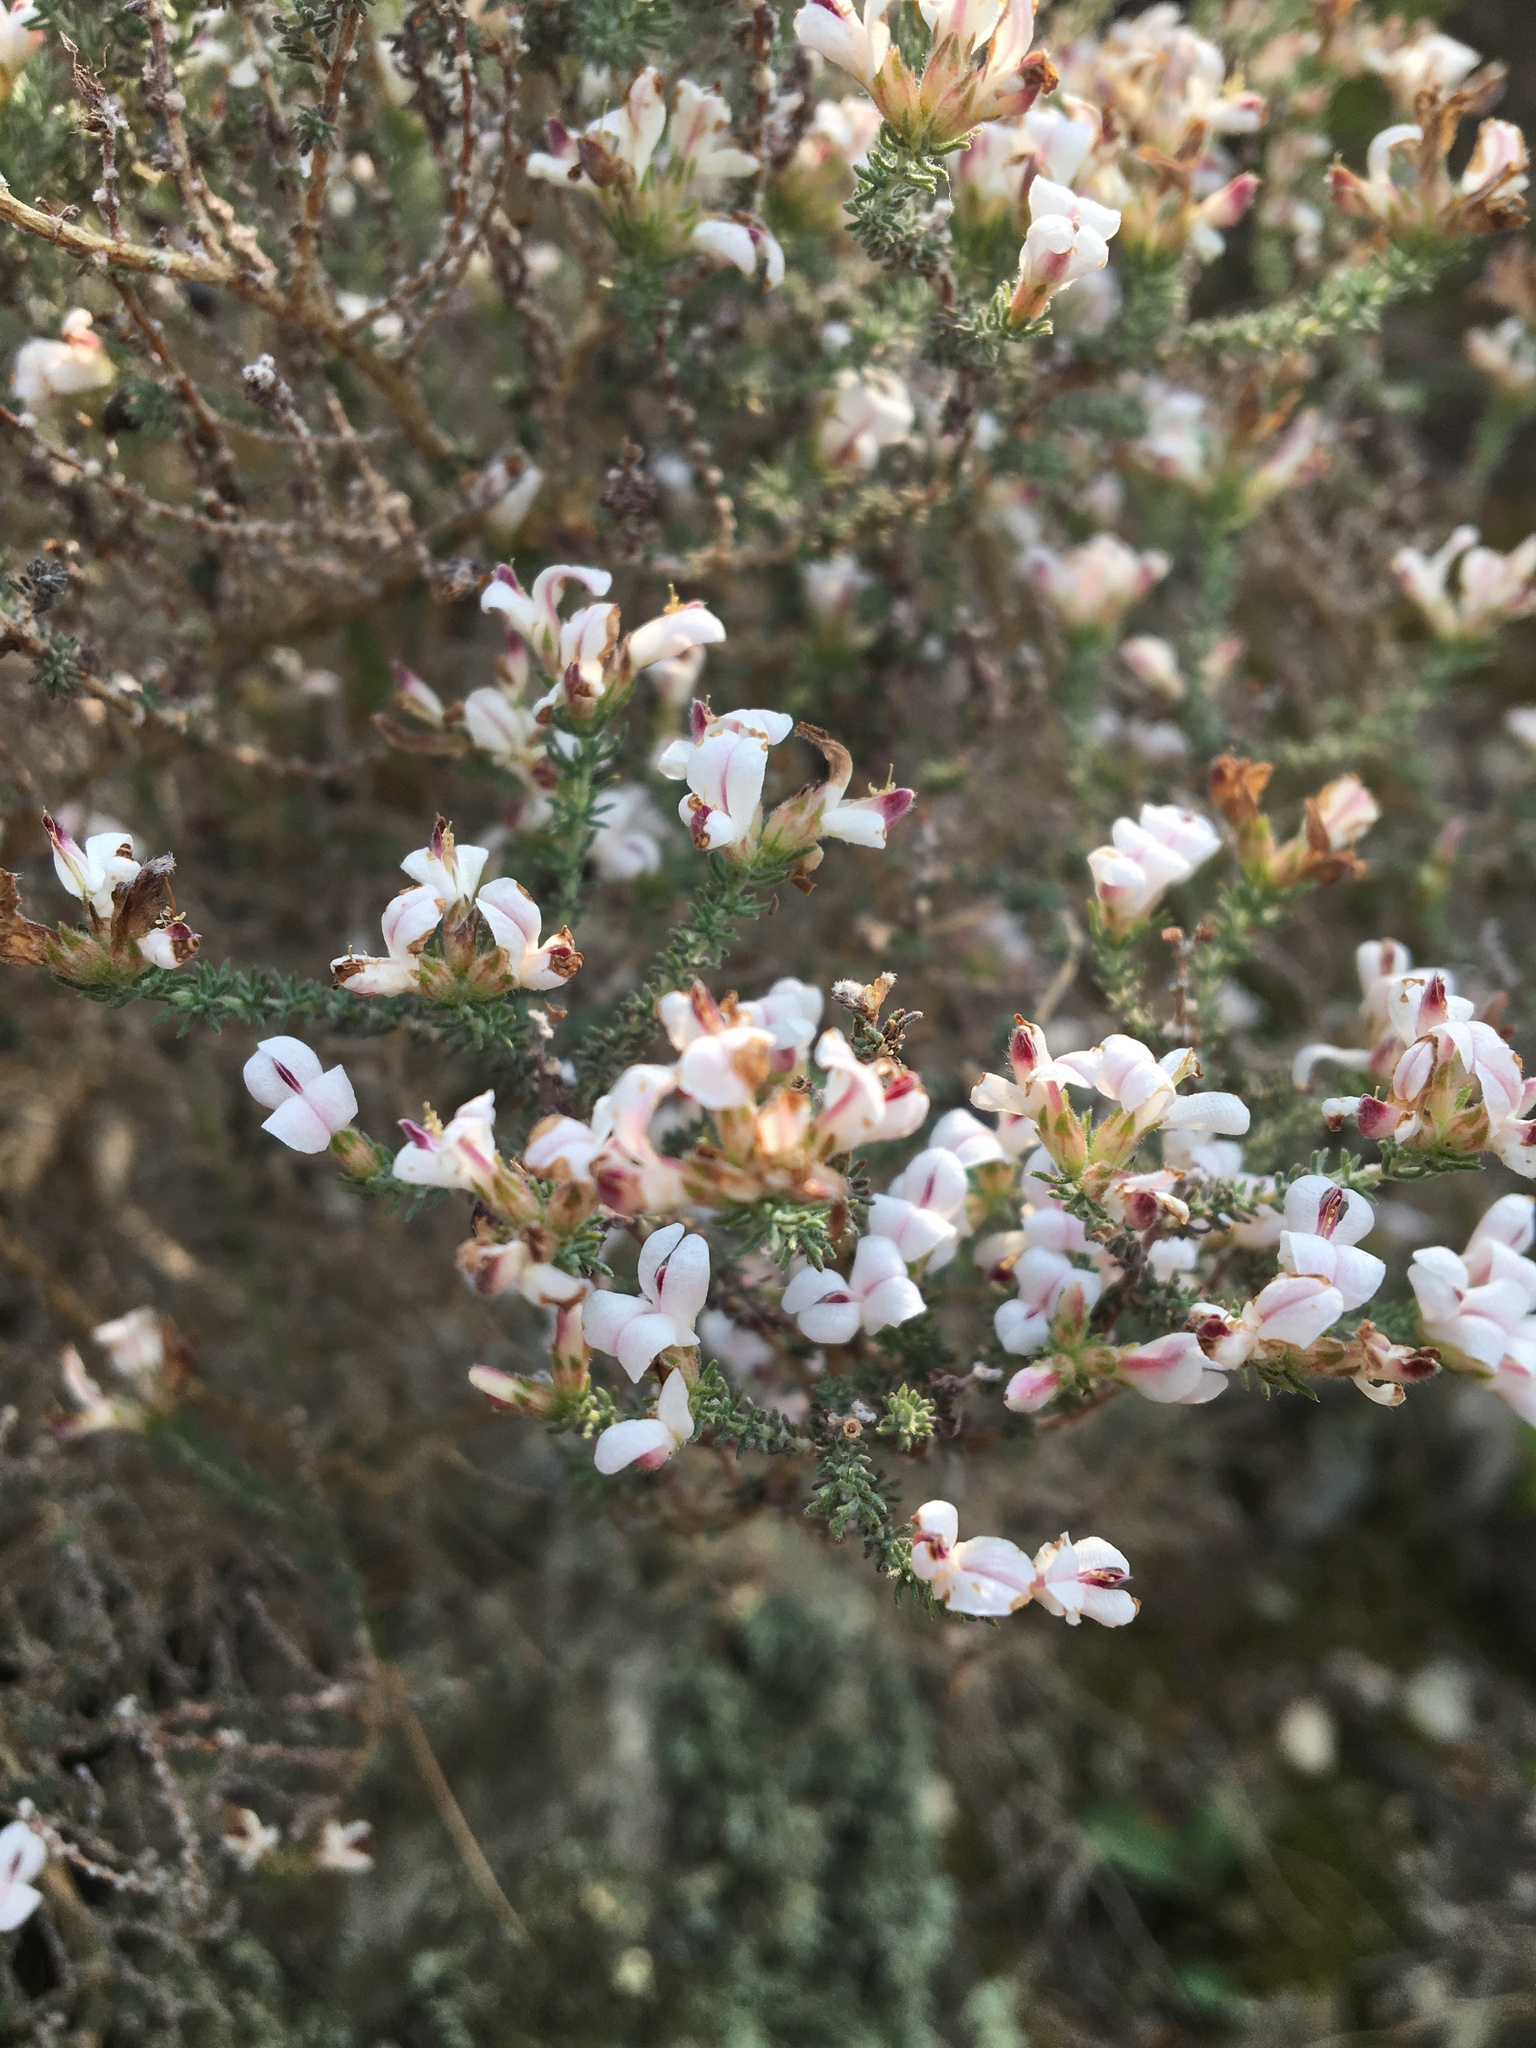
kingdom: Plantae
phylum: Tracheophyta
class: Magnoliopsida
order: Fabales
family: Fabaceae
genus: Aspalathus
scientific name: Aspalathus hispida
